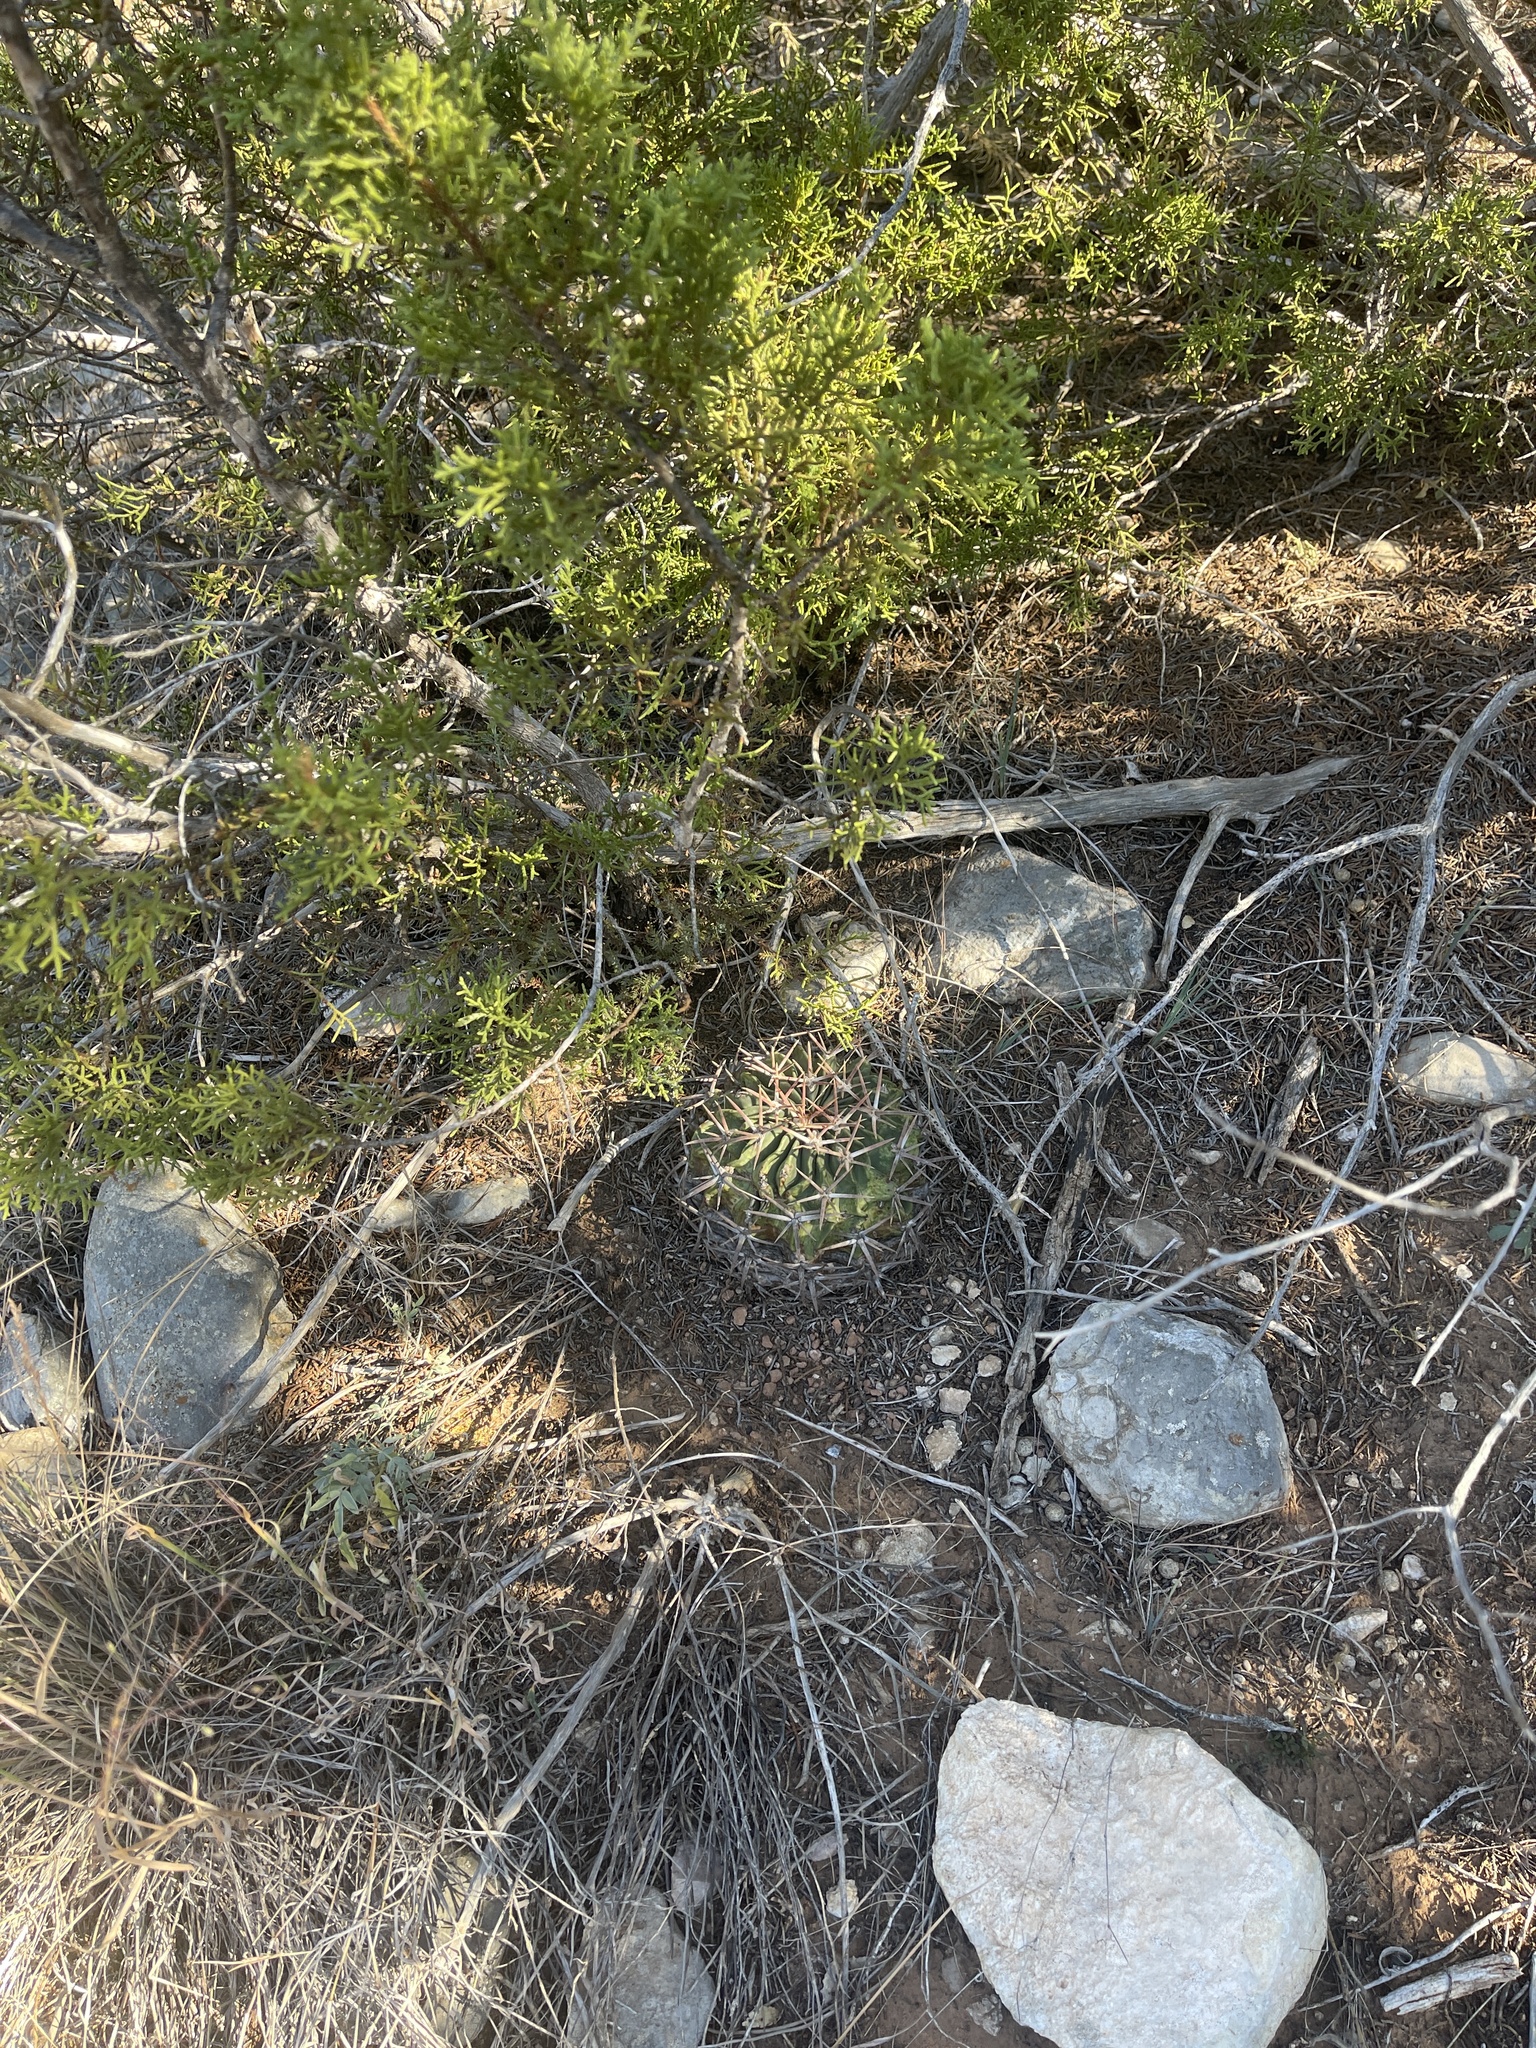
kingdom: Plantae
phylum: Tracheophyta
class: Magnoliopsida
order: Caryophyllales
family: Cactaceae
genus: Echinocactus
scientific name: Echinocactus texensis
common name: Devil's pincushion
